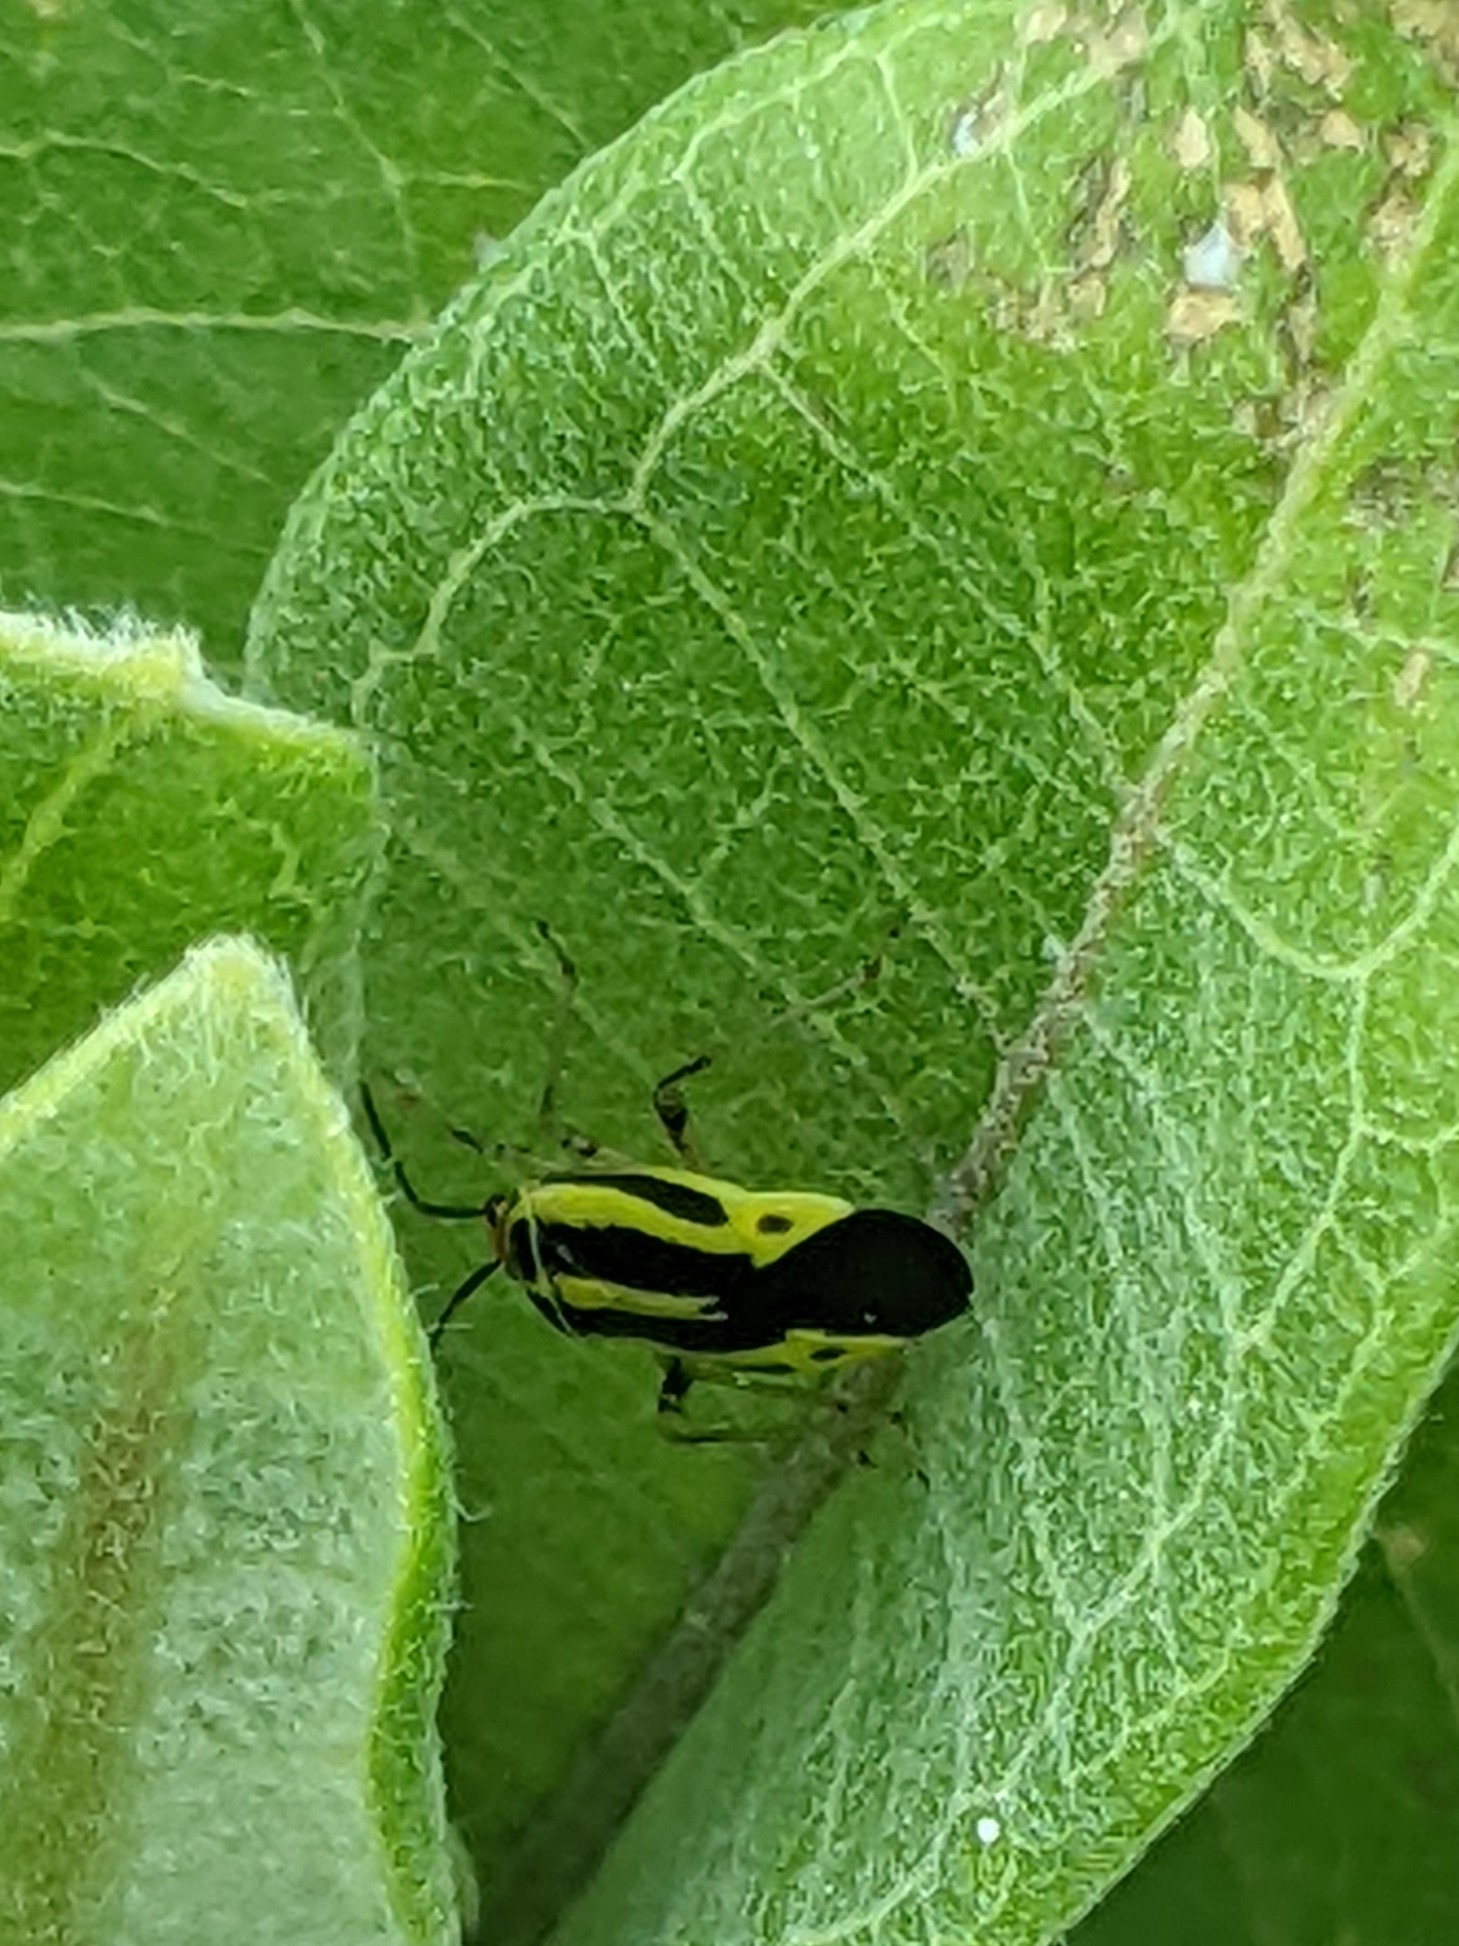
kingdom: Animalia
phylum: Arthropoda
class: Insecta
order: Hemiptera
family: Miridae
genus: Poecilocapsus
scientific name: Poecilocapsus lineatus
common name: Four-lined plant bug
